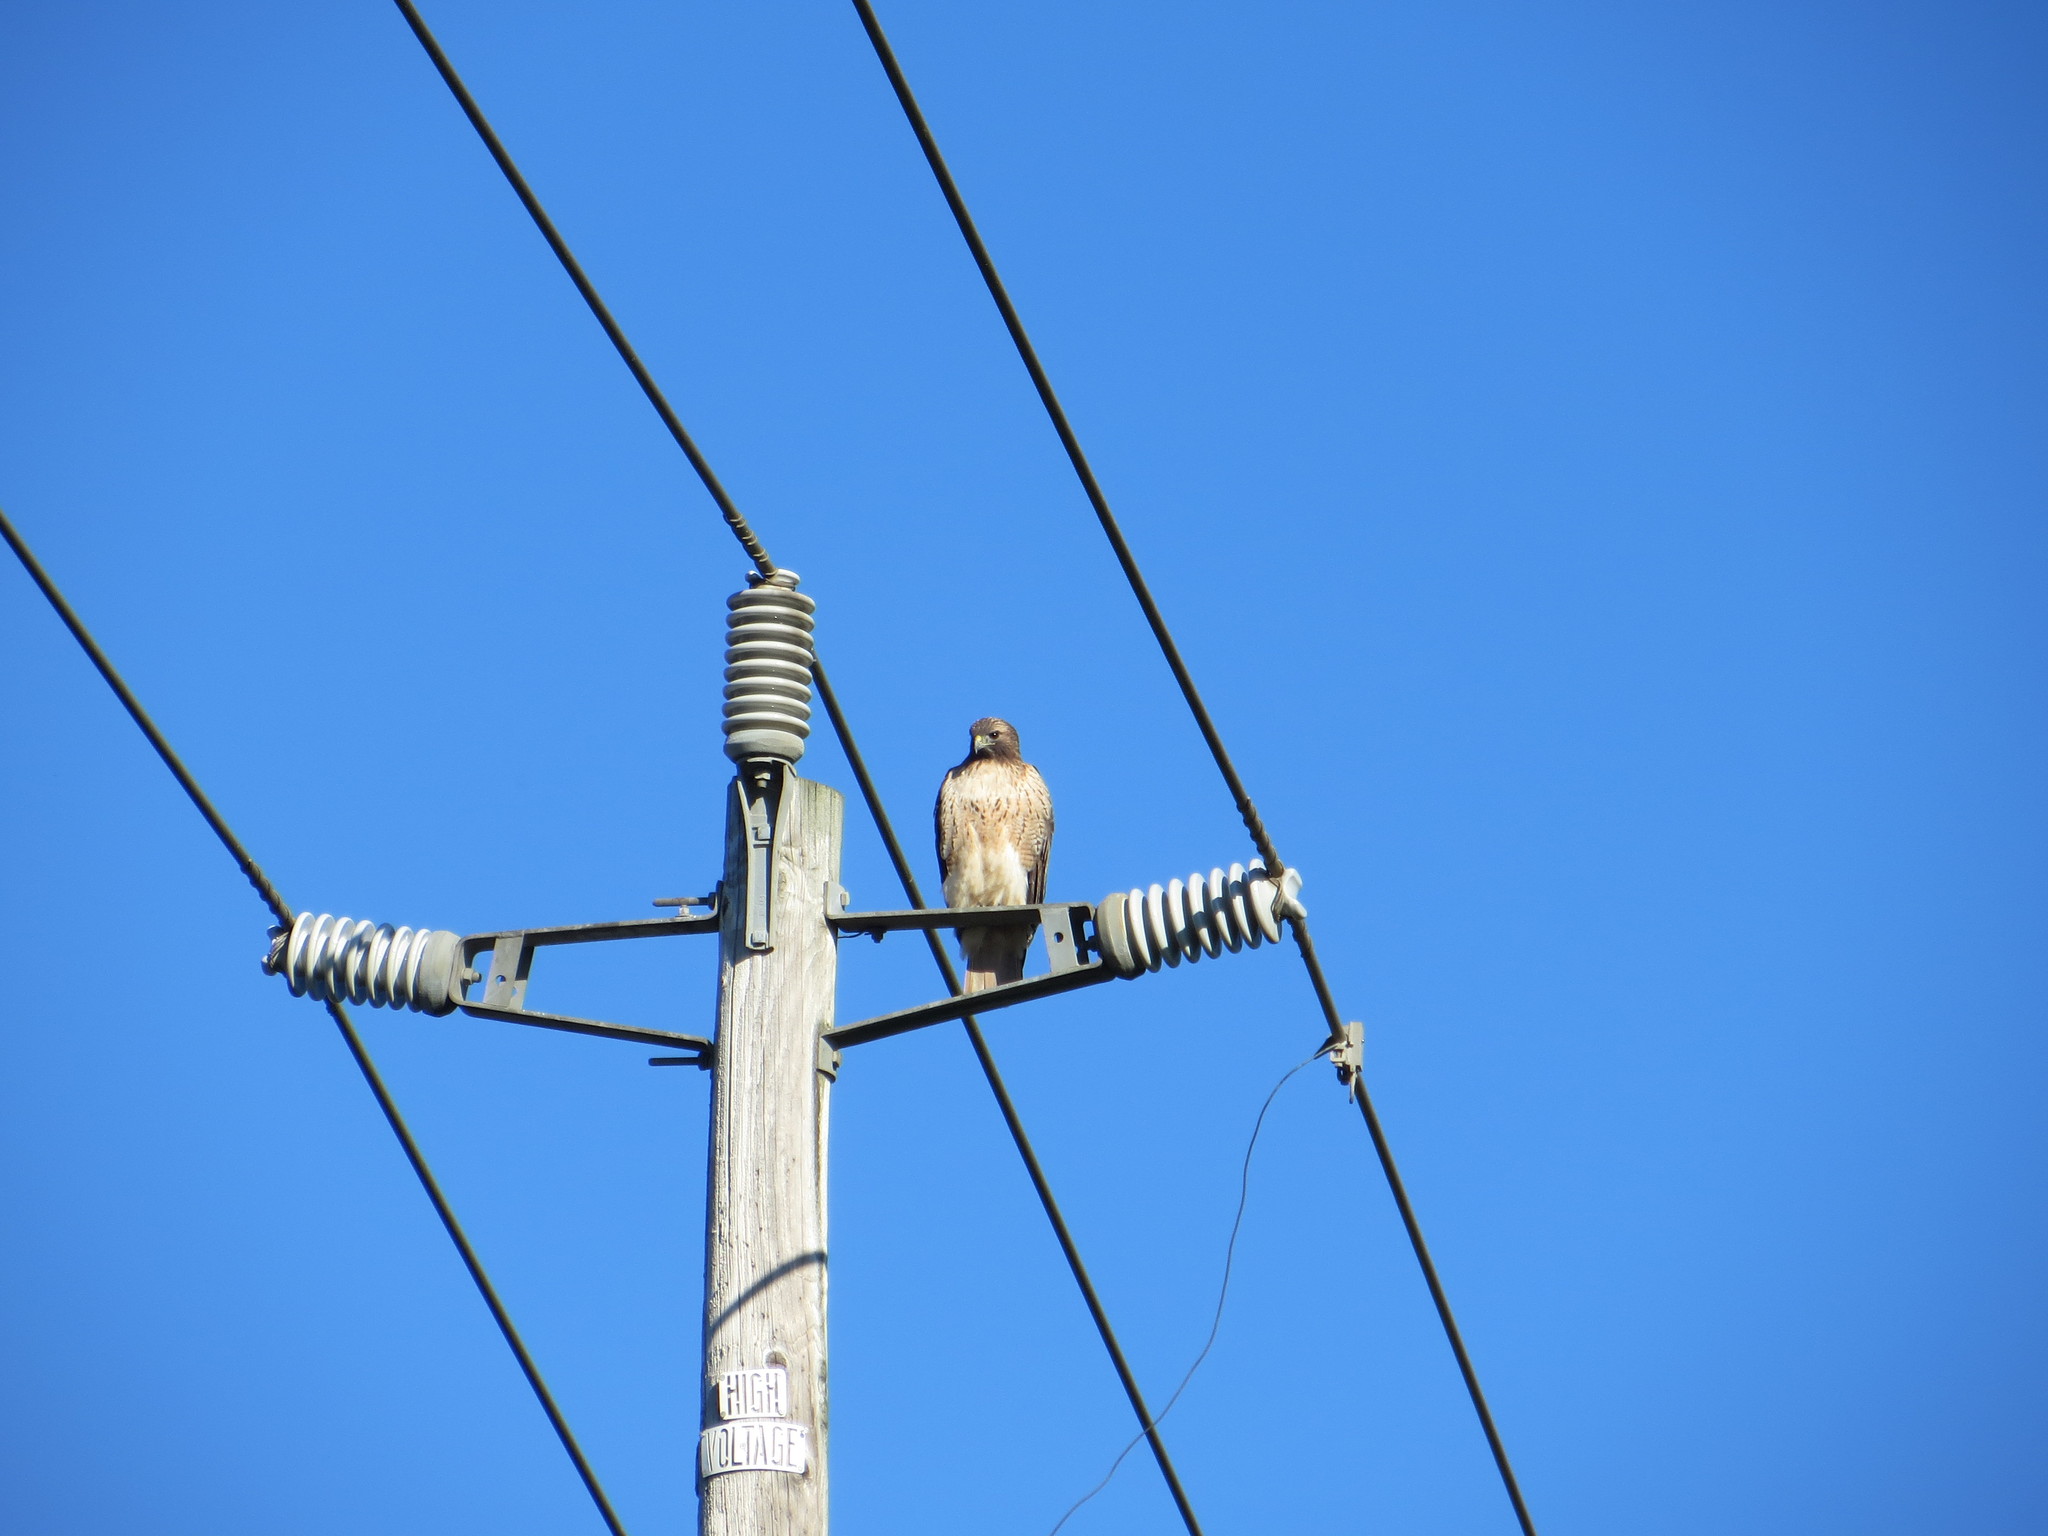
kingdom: Animalia
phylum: Chordata
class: Aves
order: Accipitriformes
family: Accipitridae
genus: Buteo
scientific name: Buteo jamaicensis
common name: Red-tailed hawk
